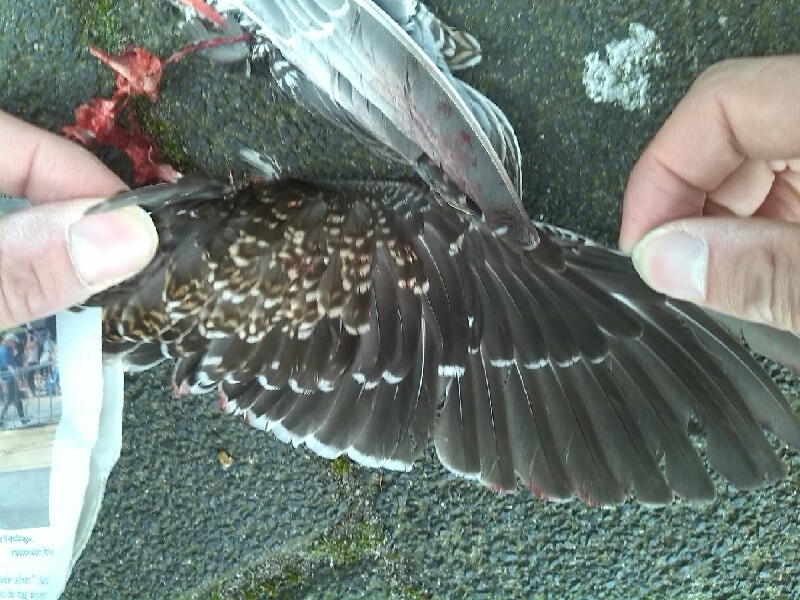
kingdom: Animalia
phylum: Chordata
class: Aves
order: Charadriiformes
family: Scolopacidae
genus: Gallinago
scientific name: Gallinago gallinago
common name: Common snipe
